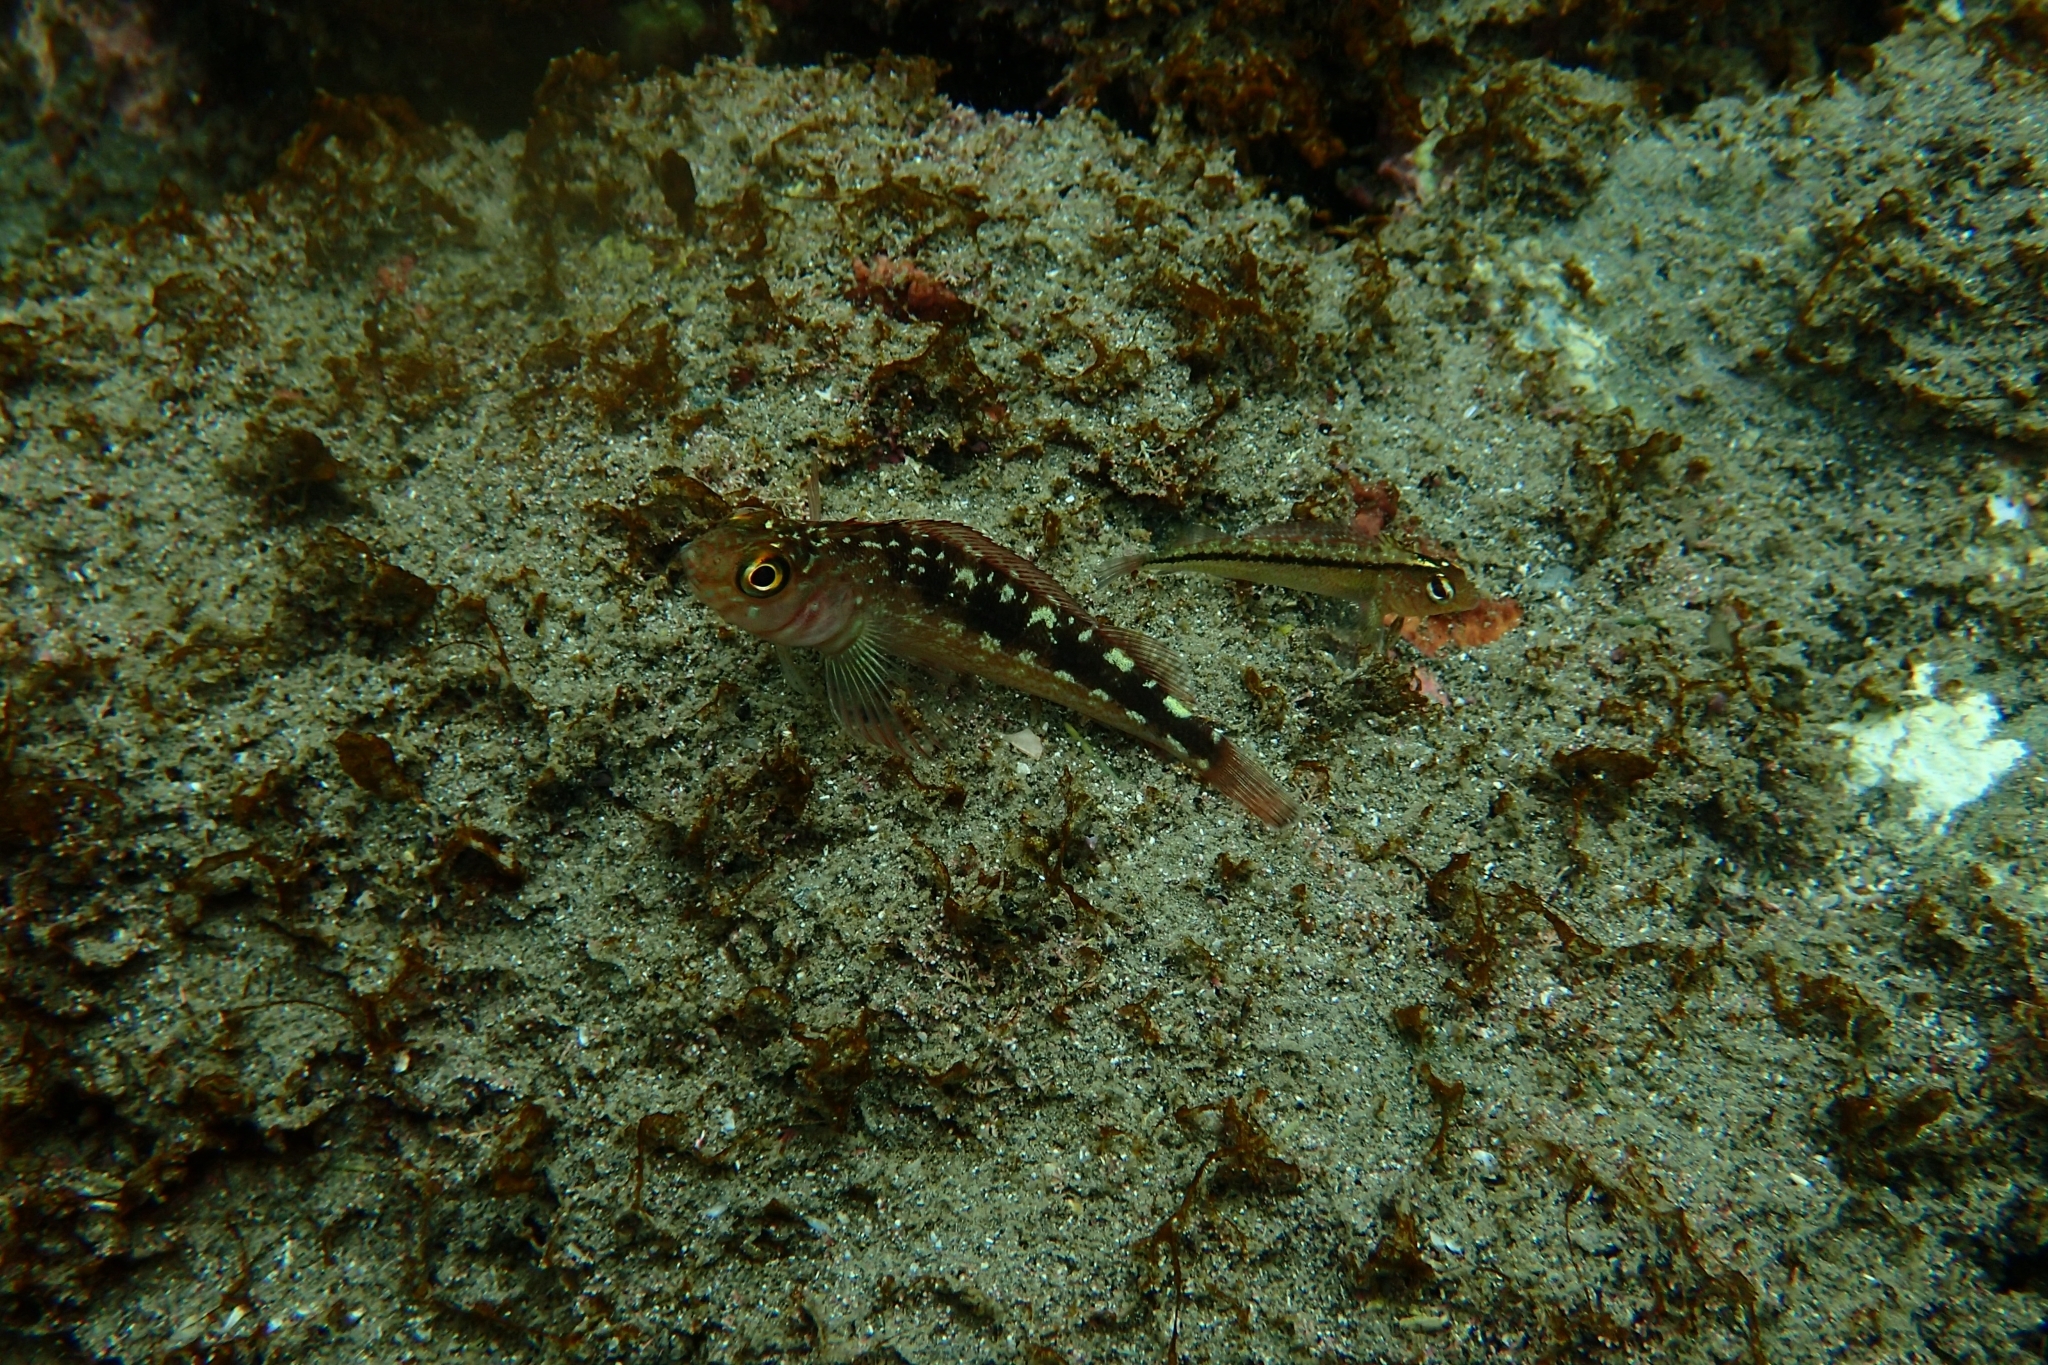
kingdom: Animalia
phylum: Chordata
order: Perciformes
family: Tripterygiidae
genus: Forsterygion
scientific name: Forsterygion varium
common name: Variable triplefin
